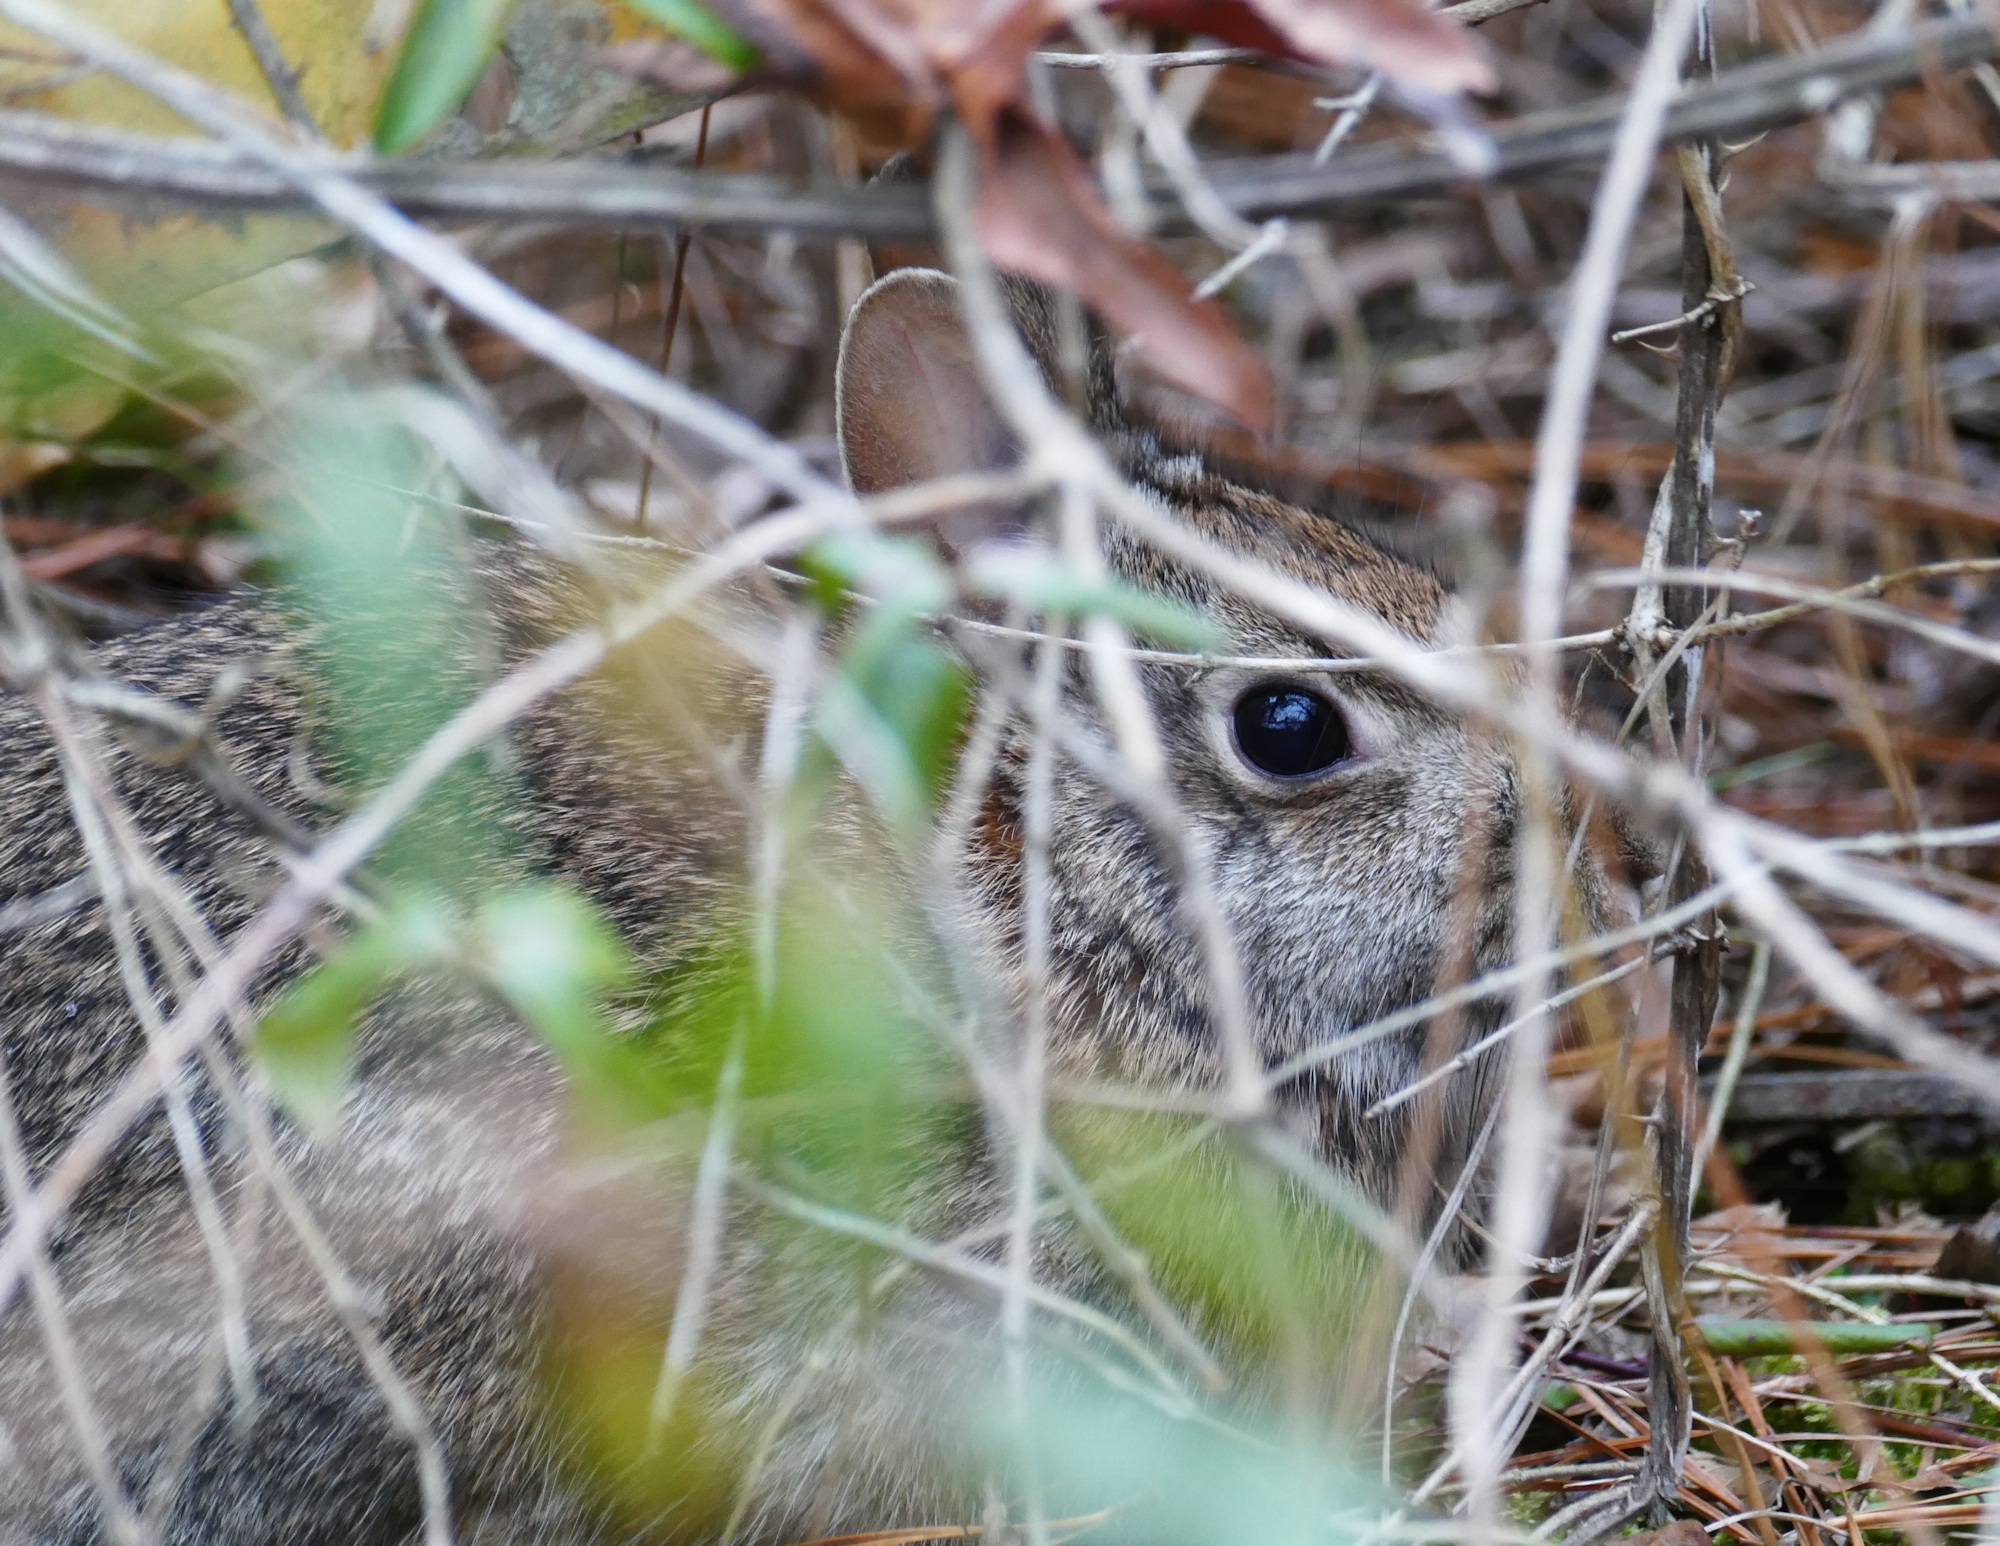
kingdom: Animalia
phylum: Chordata
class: Mammalia
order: Lagomorpha
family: Leporidae
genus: Sylvilagus
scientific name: Sylvilagus floridanus
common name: Eastern cottontail
